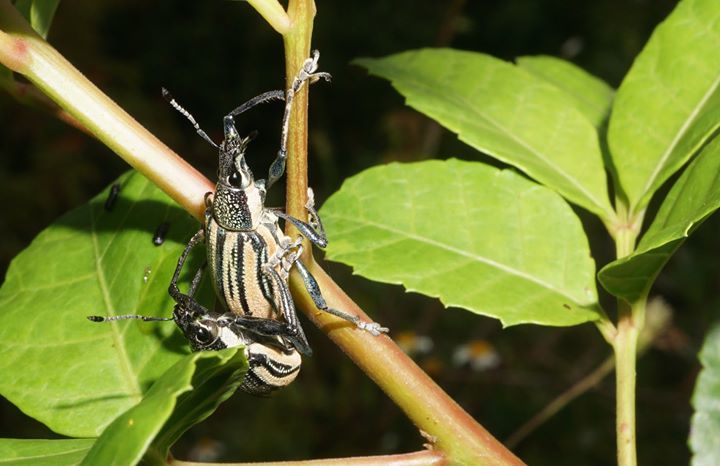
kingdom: Animalia
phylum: Arthropoda
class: Insecta
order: Coleoptera
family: Curculionidae
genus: Diaprepes
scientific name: Diaprepes abbreviatus
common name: Root weevil
